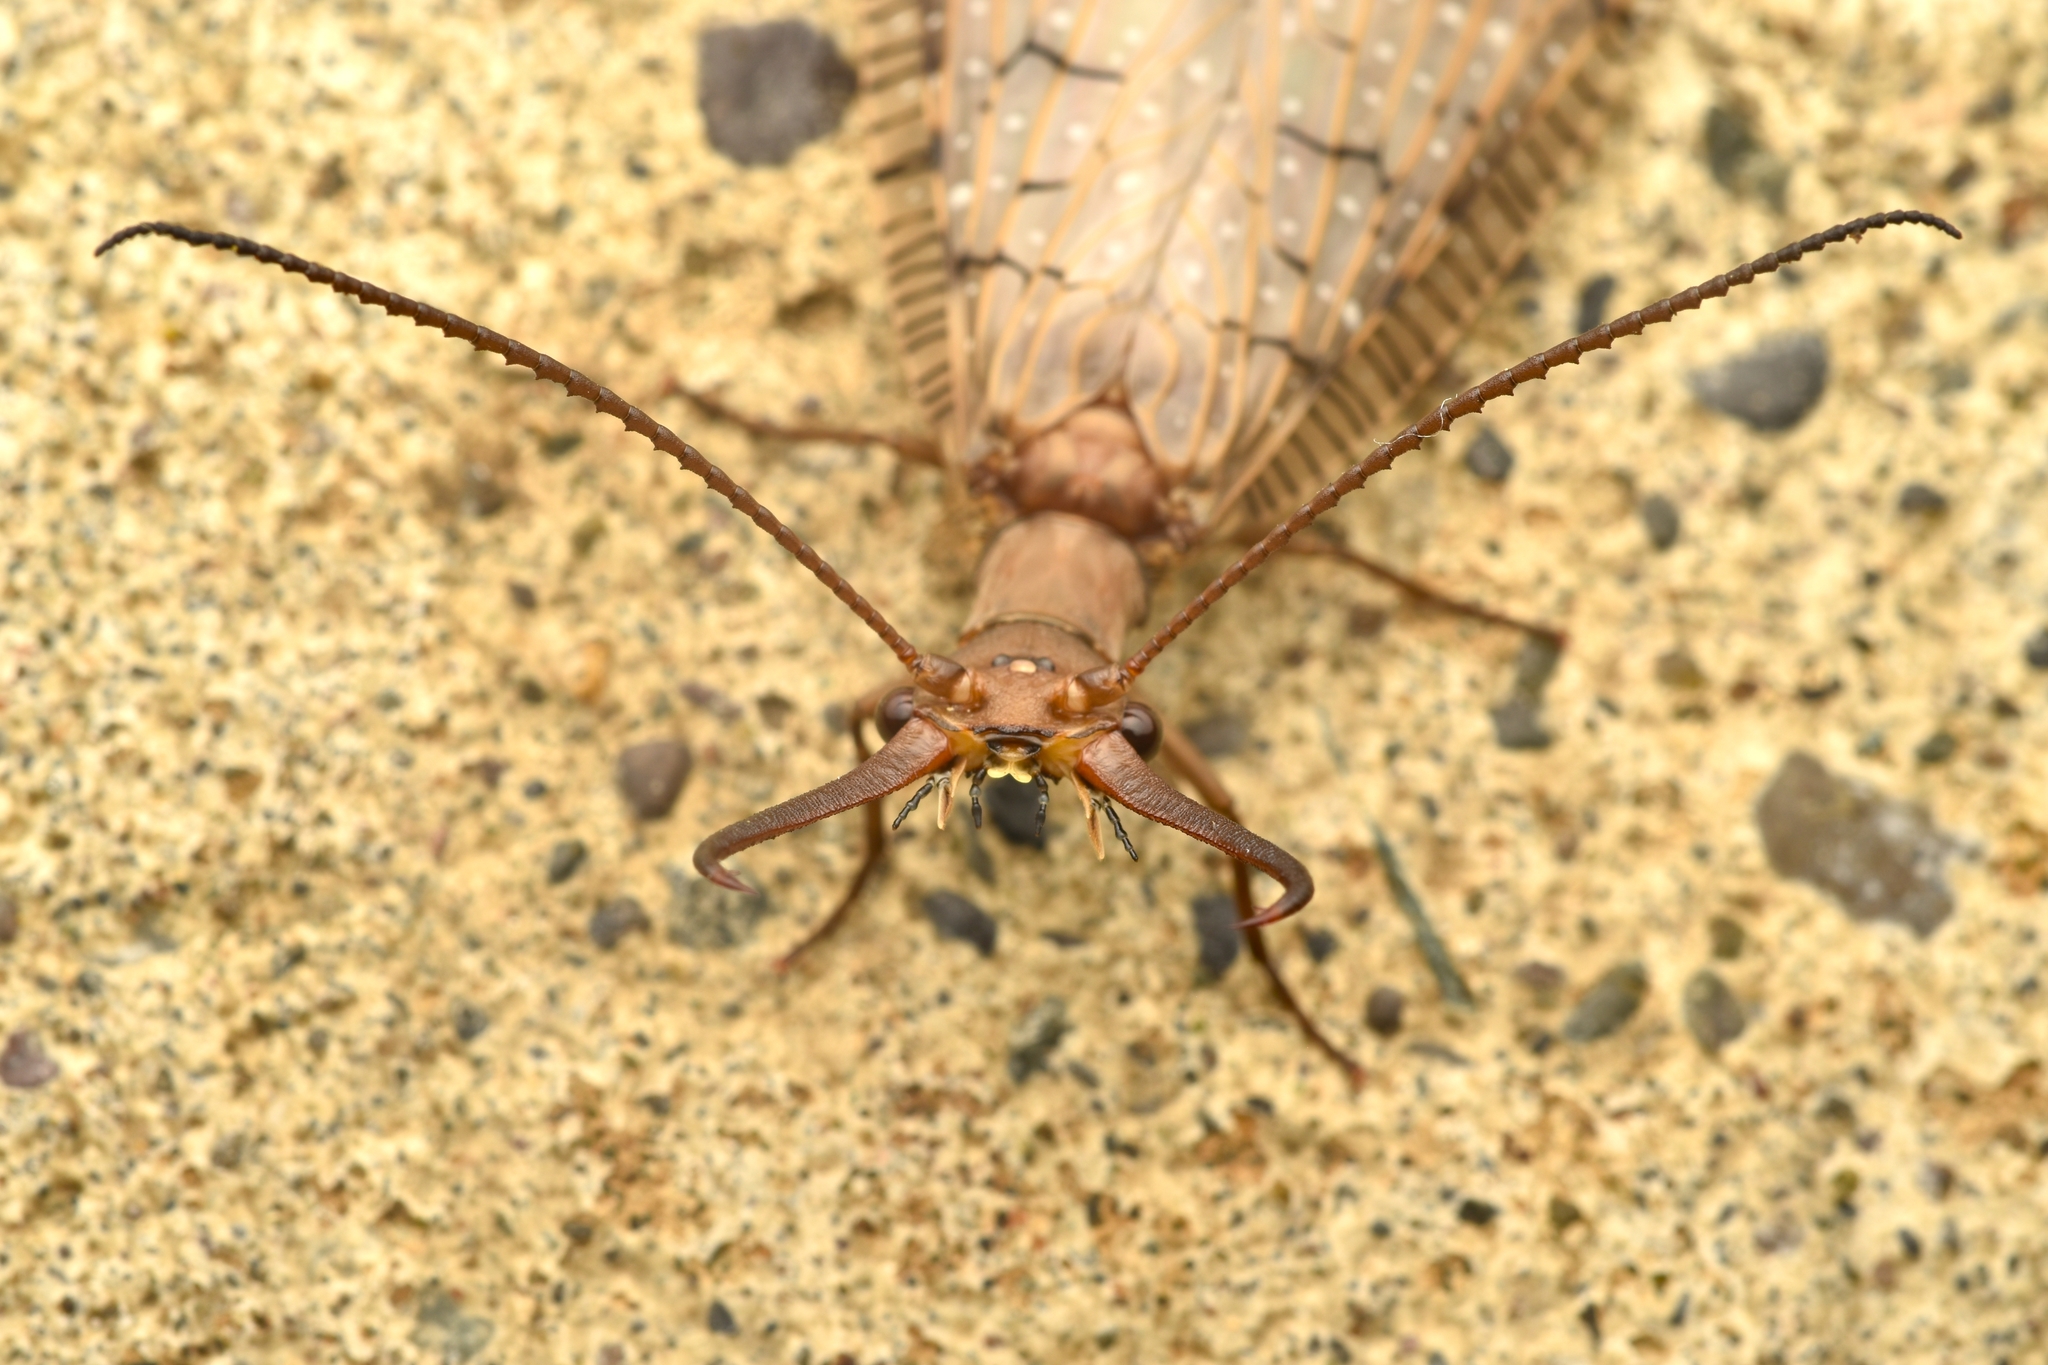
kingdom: Animalia
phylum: Arthropoda
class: Insecta
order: Megaloptera
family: Corydalidae
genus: Corydalus
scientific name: Corydalus luteus
